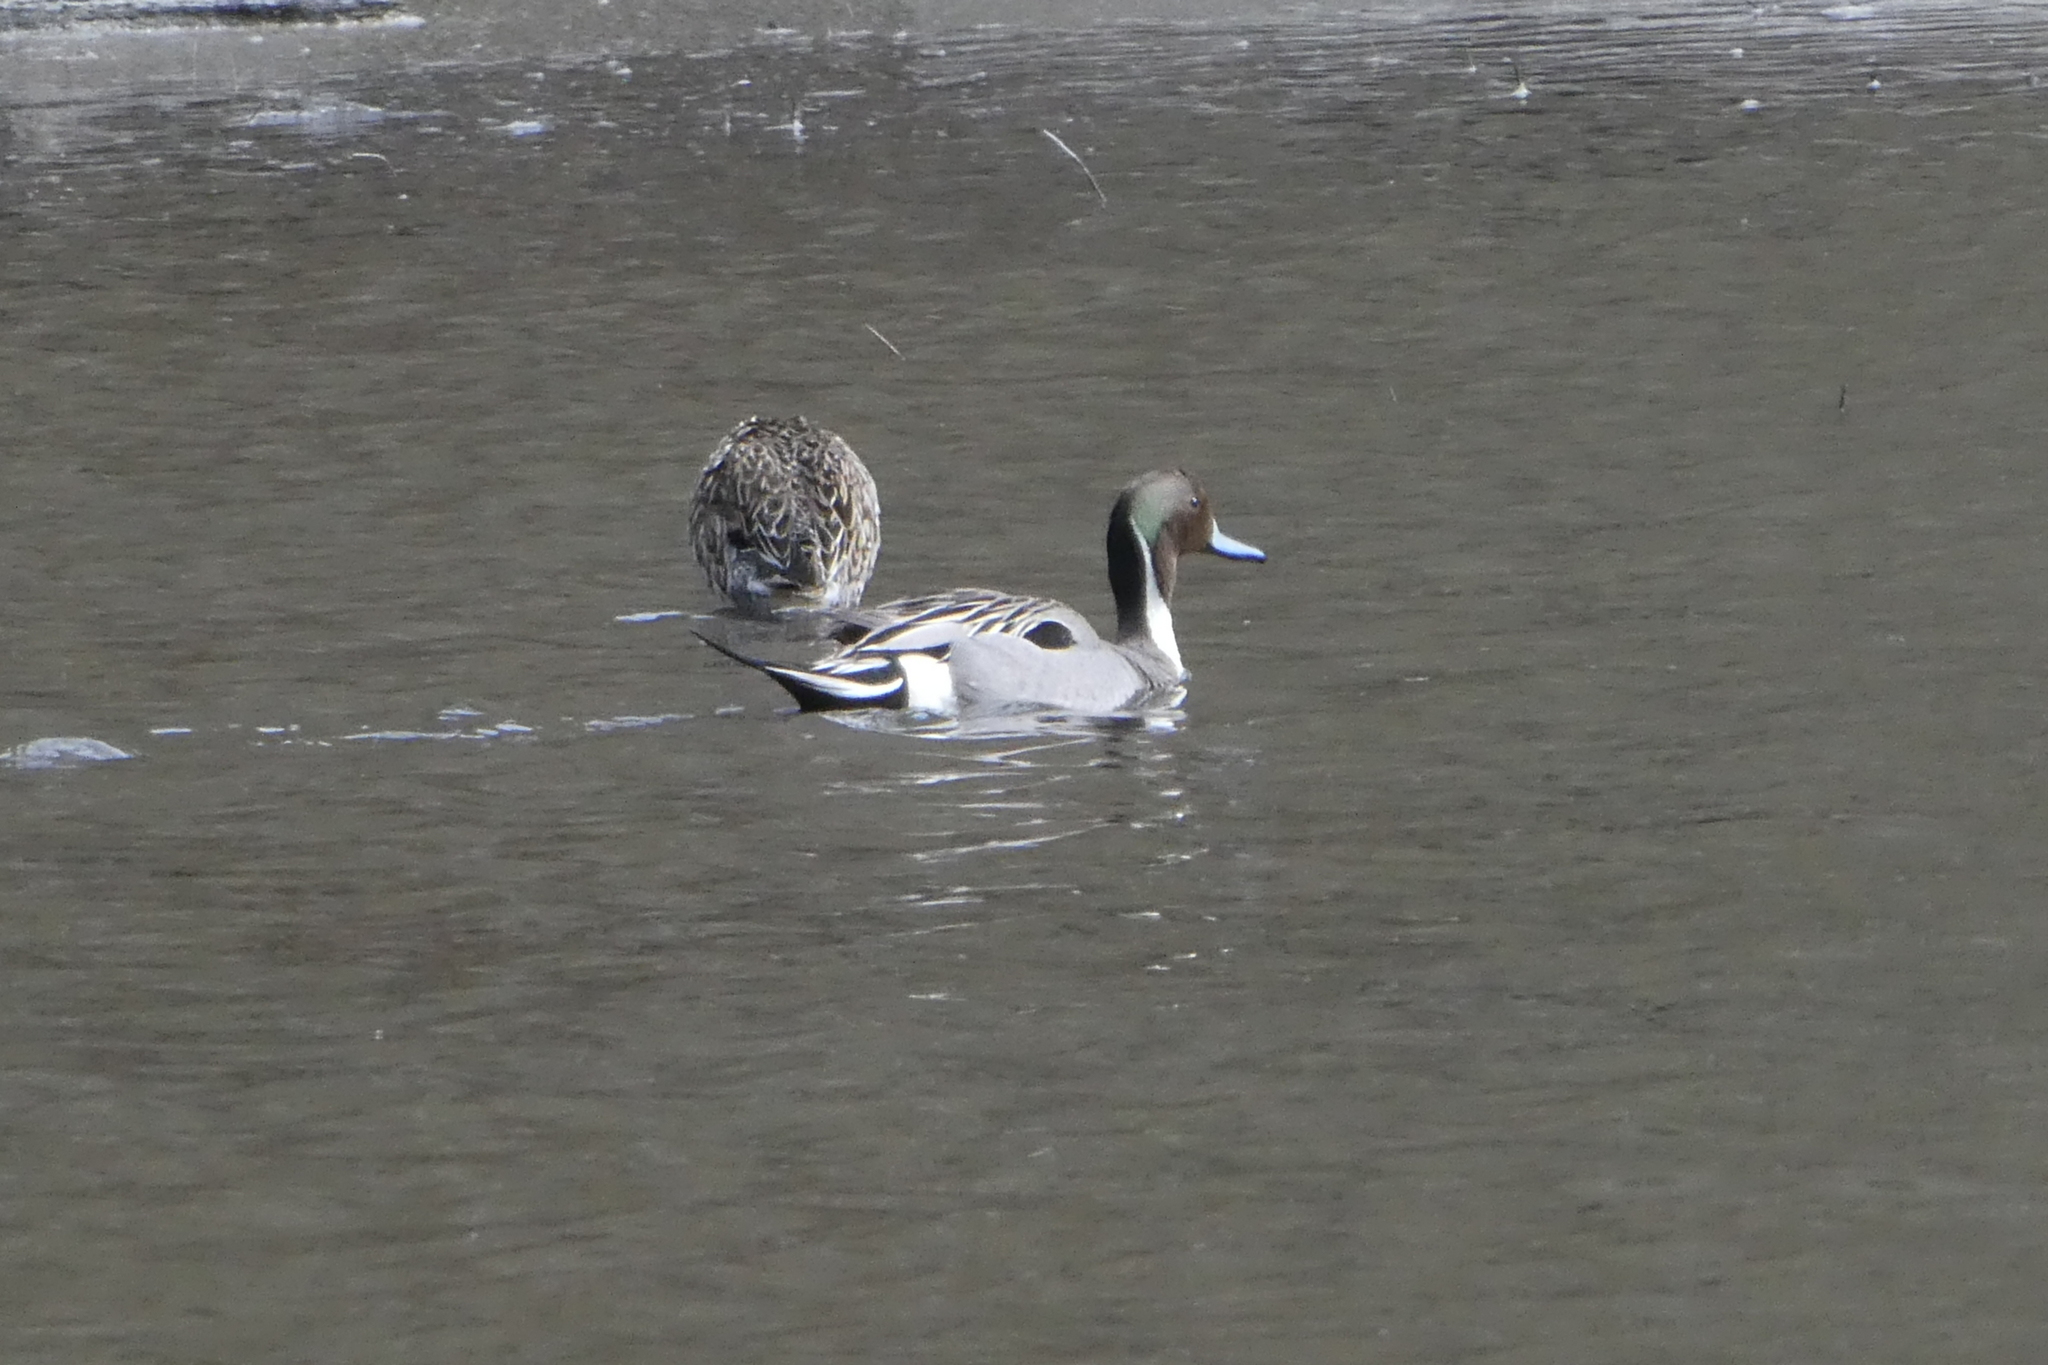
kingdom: Animalia
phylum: Chordata
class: Aves
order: Anseriformes
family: Anatidae
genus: Anas
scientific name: Anas acuta
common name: Northern pintail
